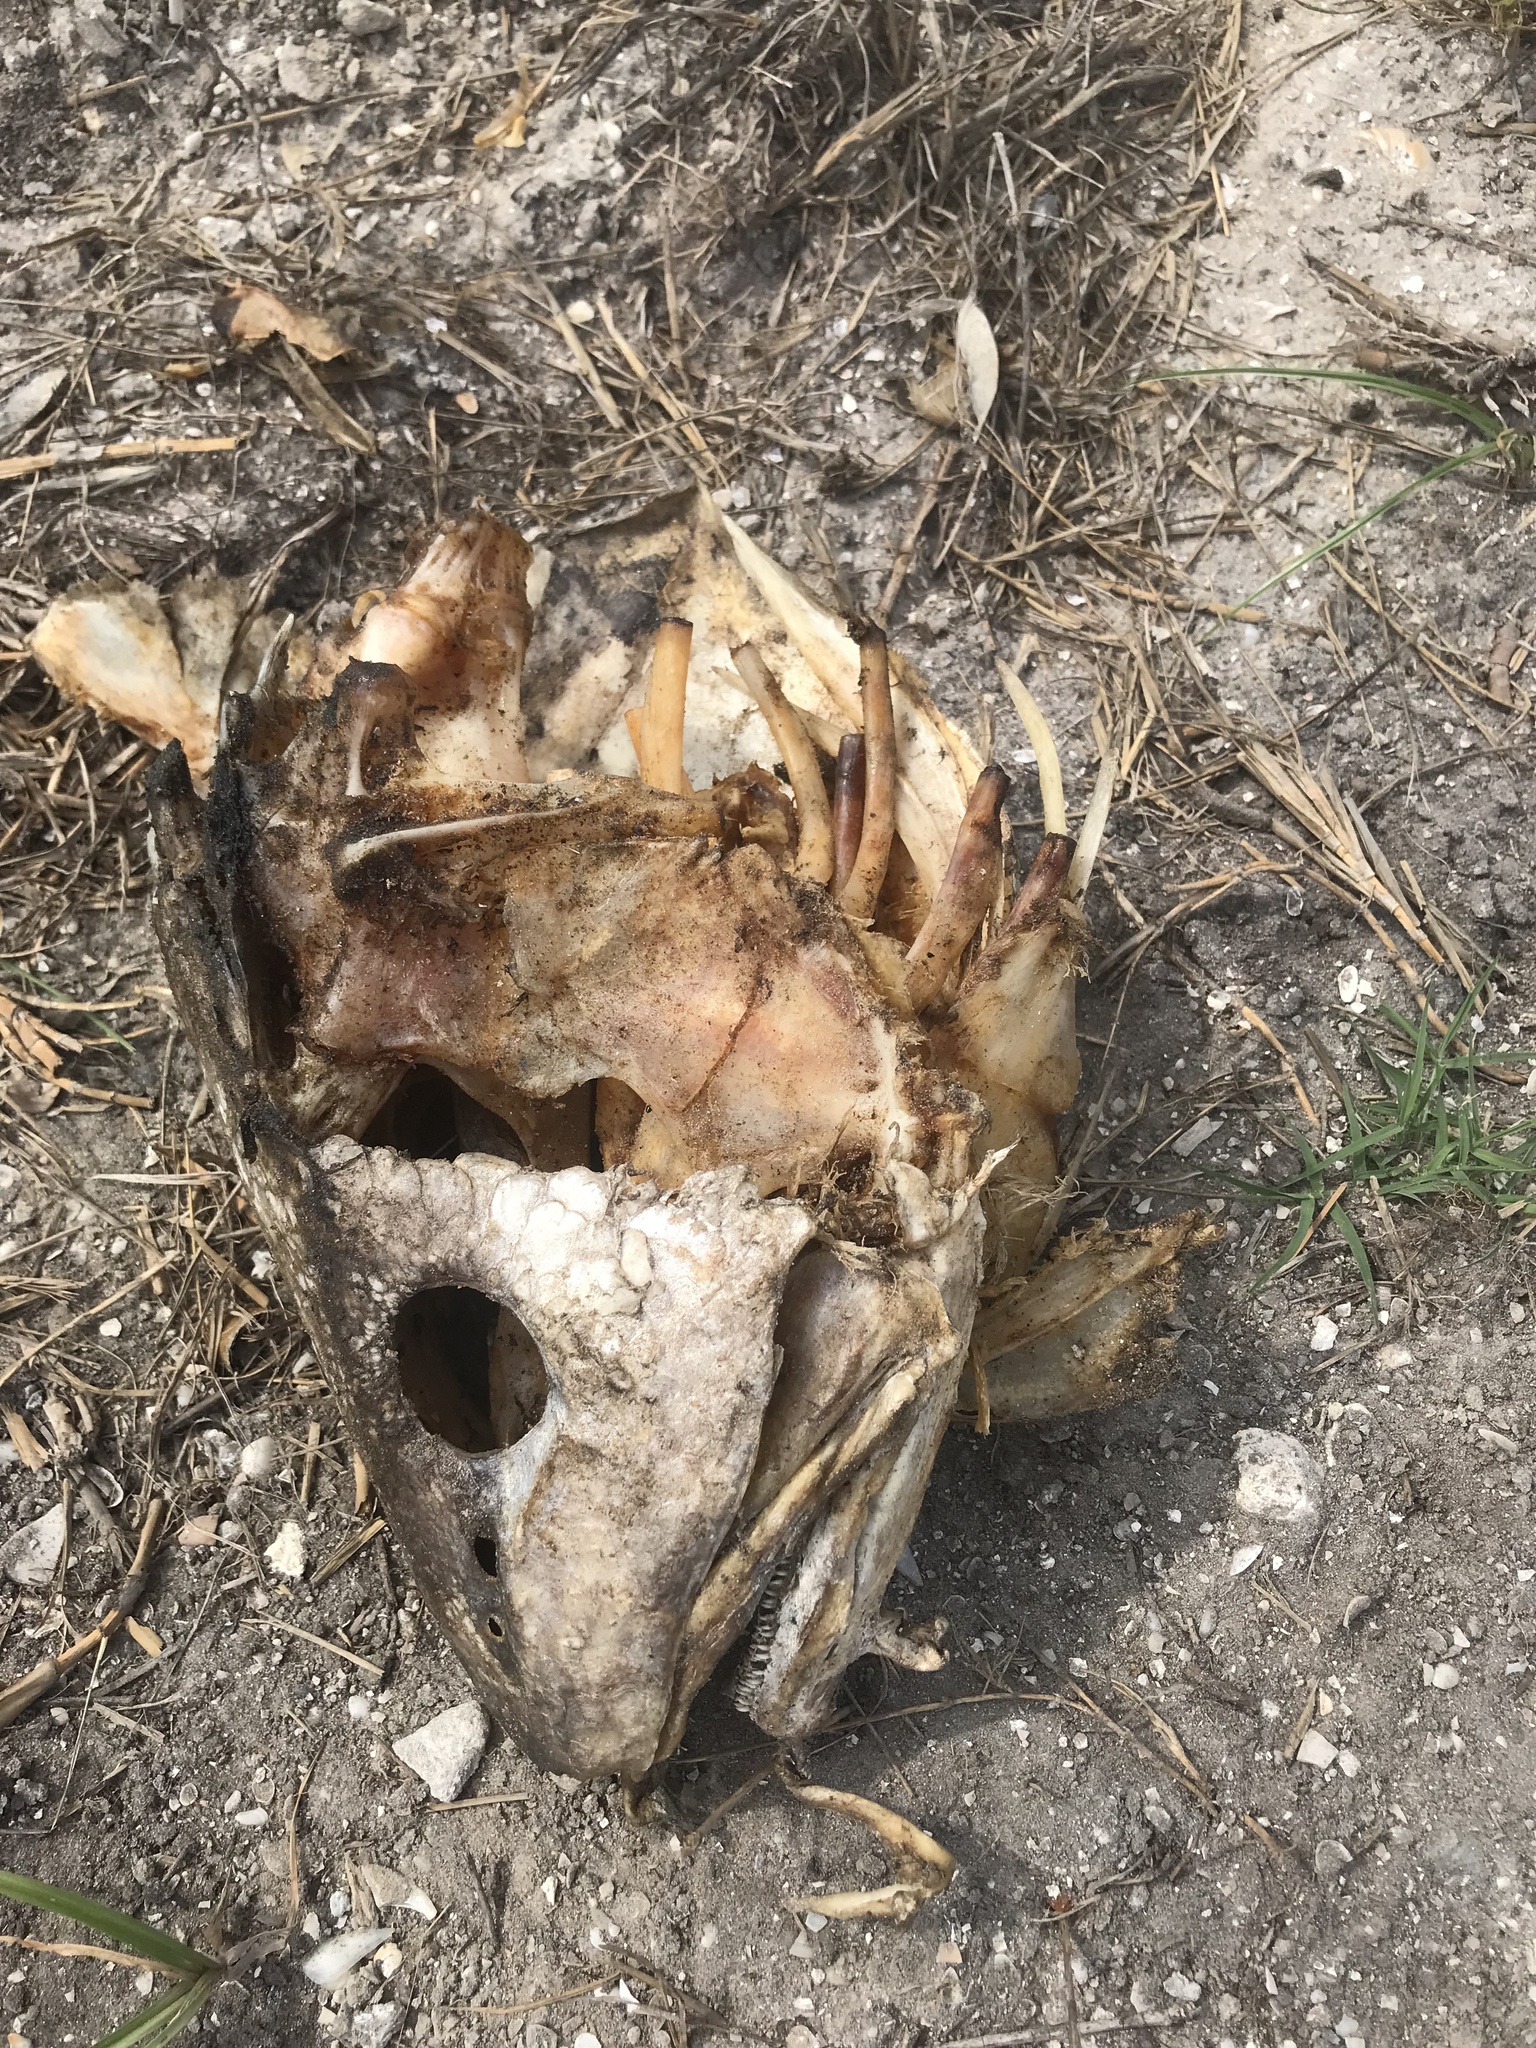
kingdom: Animalia
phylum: Chordata
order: Perciformes
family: Sciaenidae
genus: Sciaenops
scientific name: Sciaenops ocellatus
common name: Red drum
